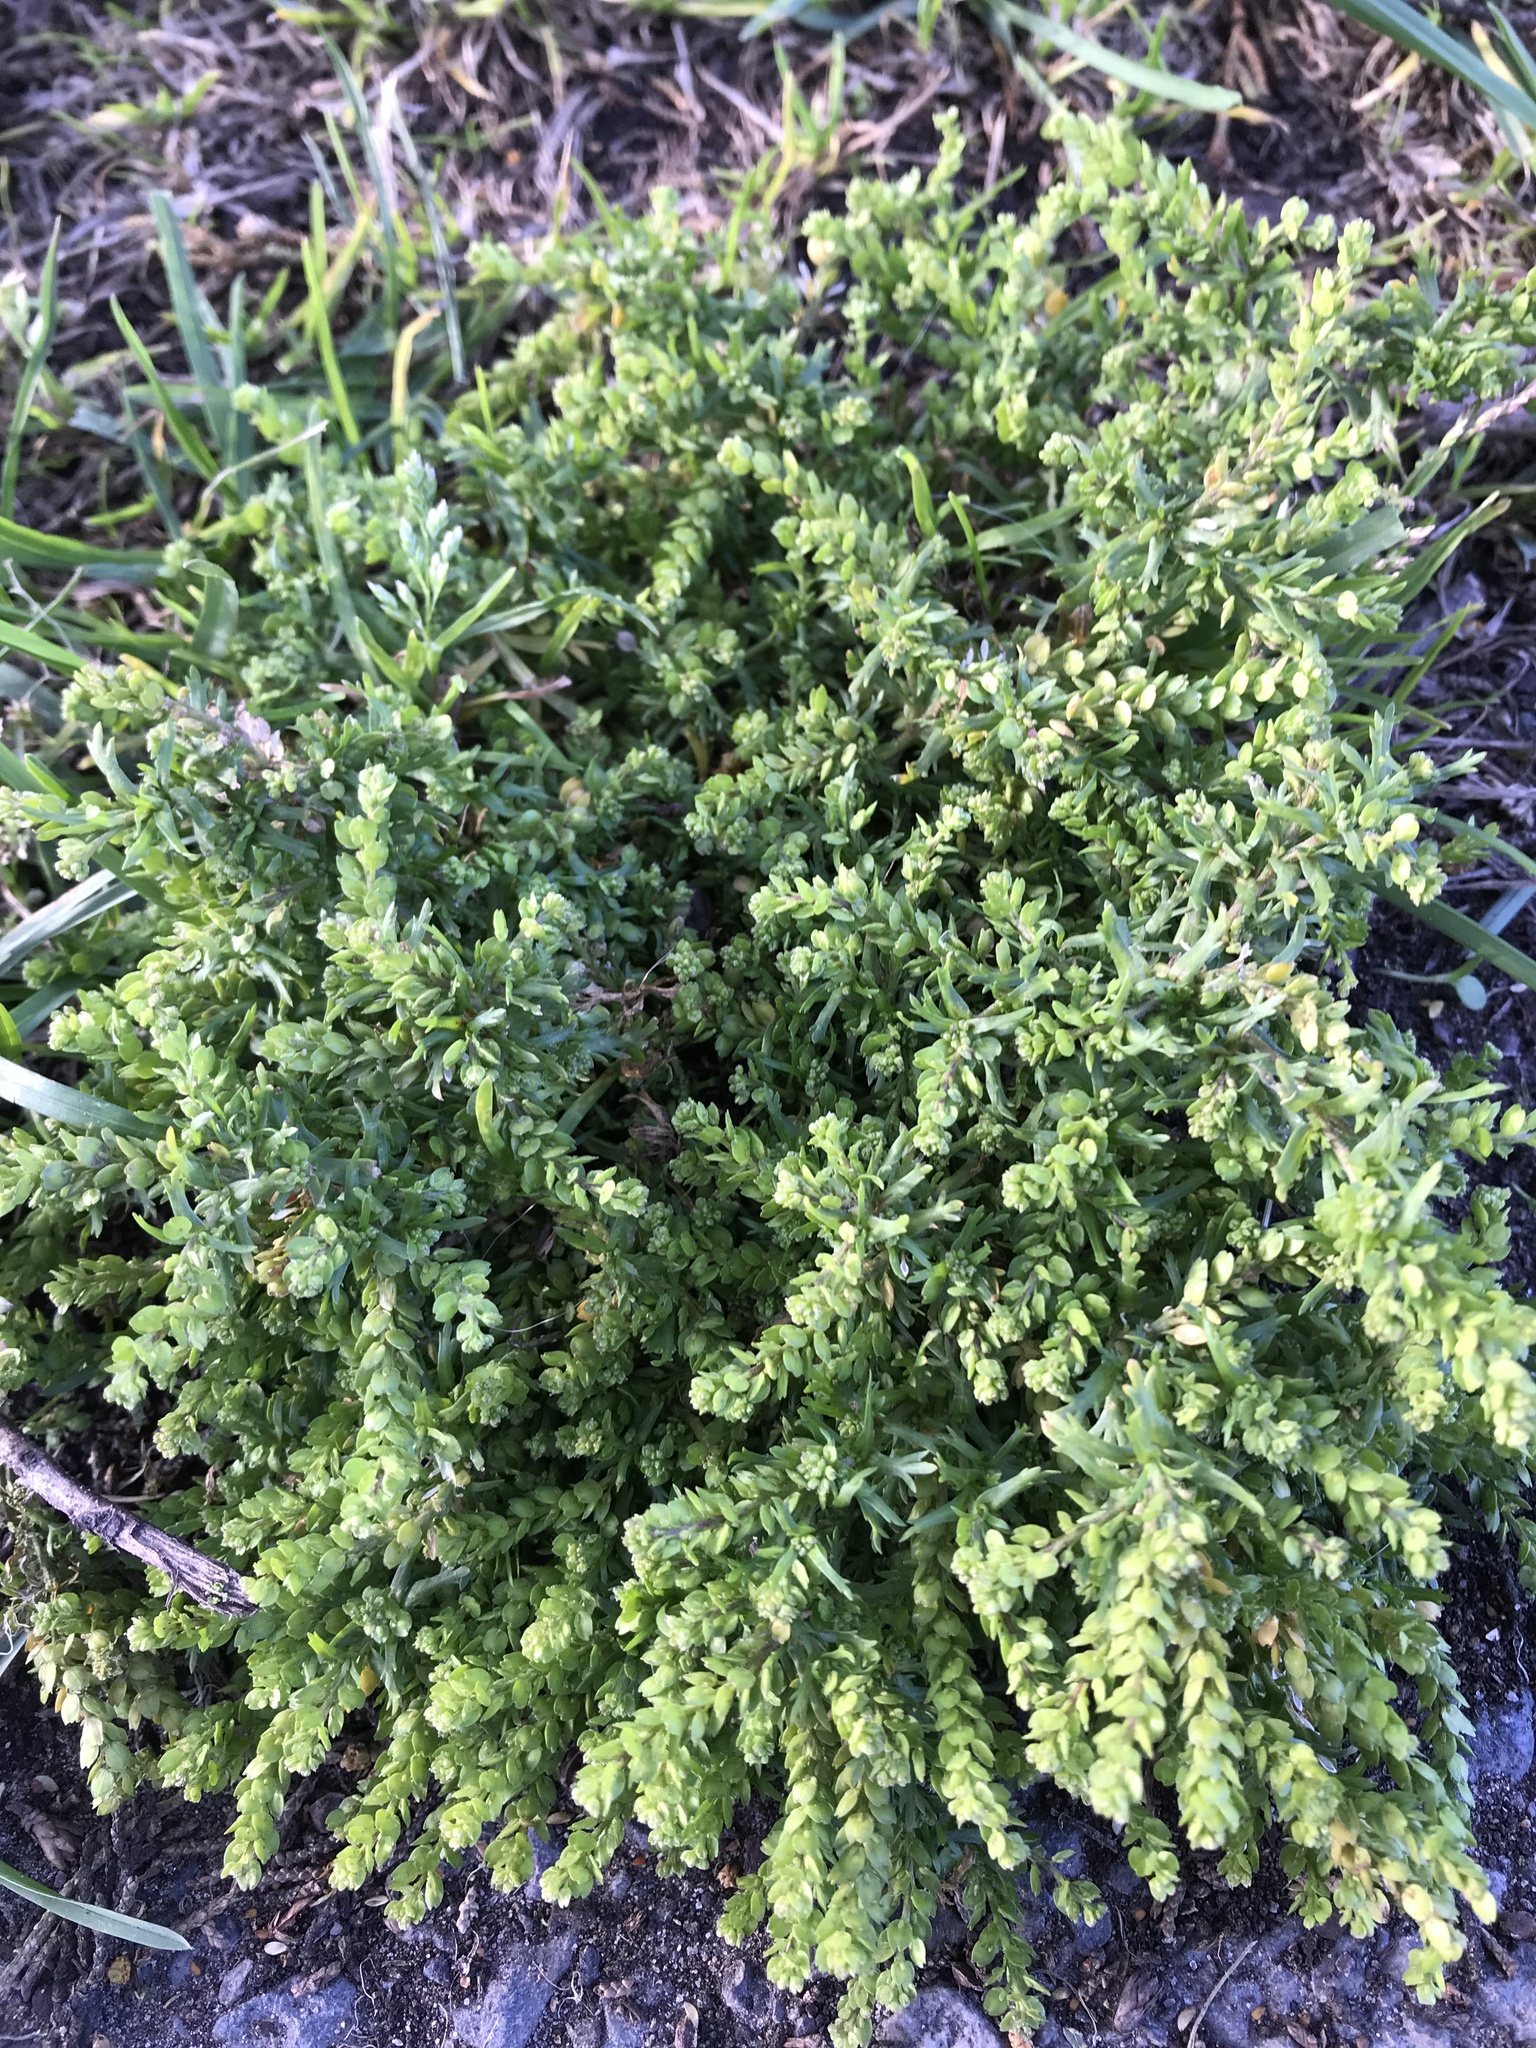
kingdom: Plantae
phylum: Tracheophyta
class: Magnoliopsida
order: Brassicales
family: Brassicaceae
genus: Lepidium
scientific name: Lepidium strictum
